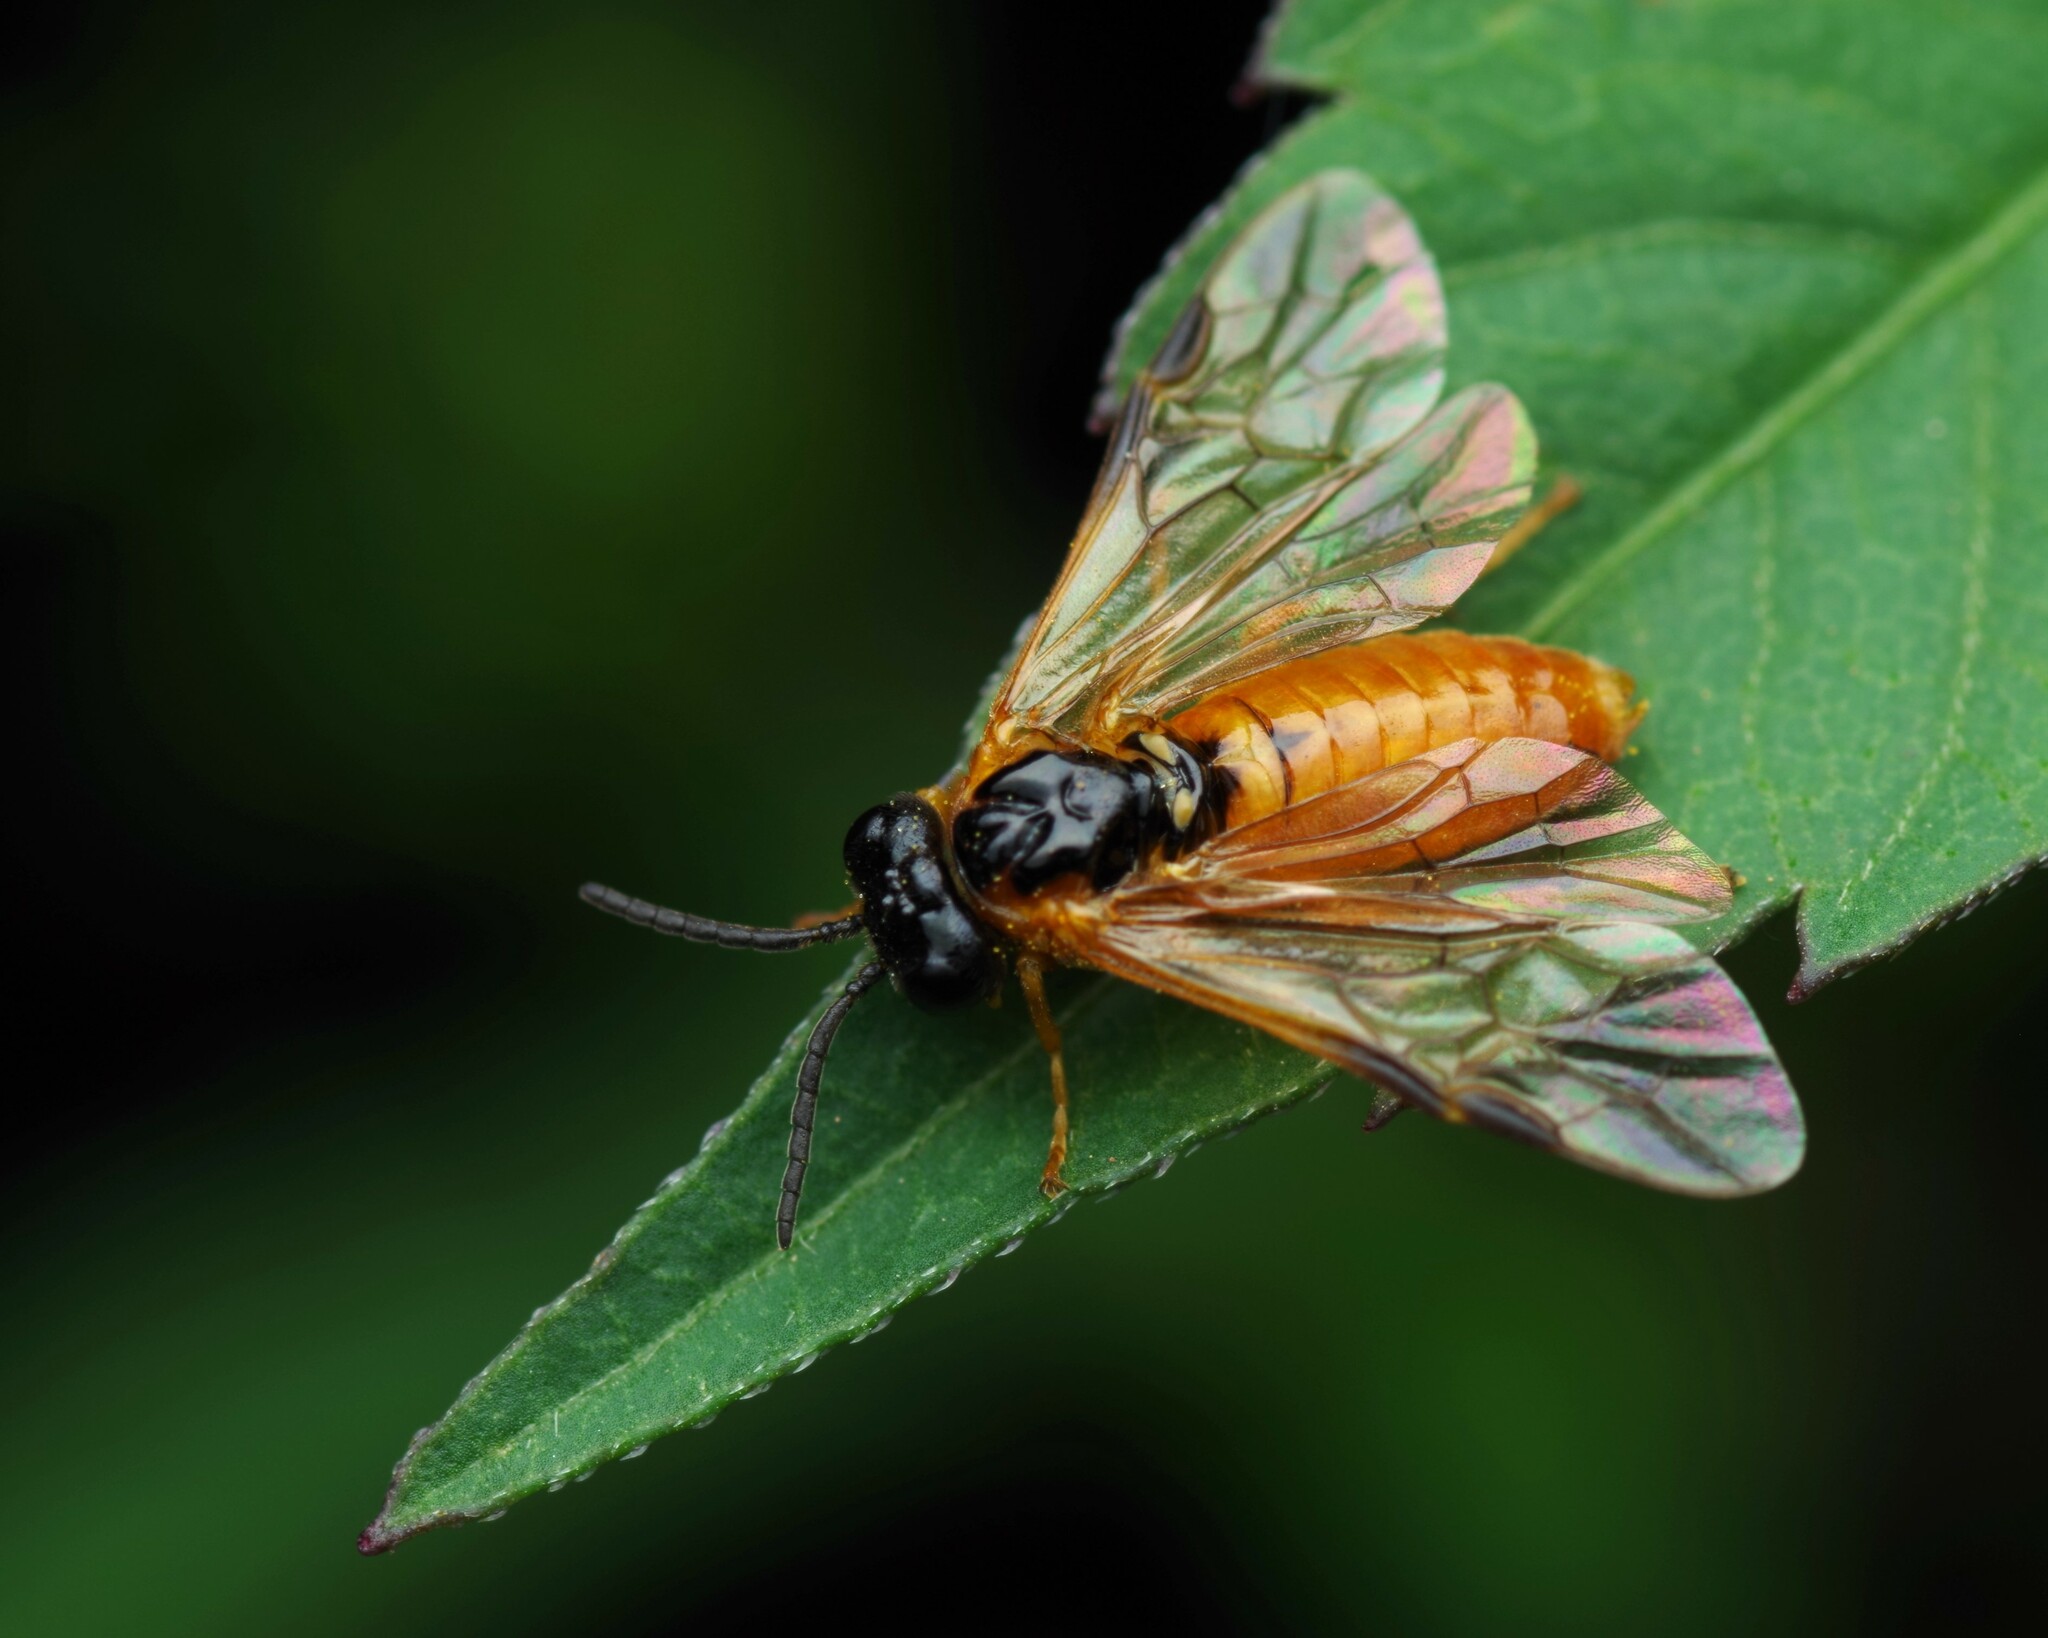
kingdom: Animalia
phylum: Arthropoda
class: Insecta
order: Hymenoptera
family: Tenthredinidae
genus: Selandria
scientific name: Selandria serva
